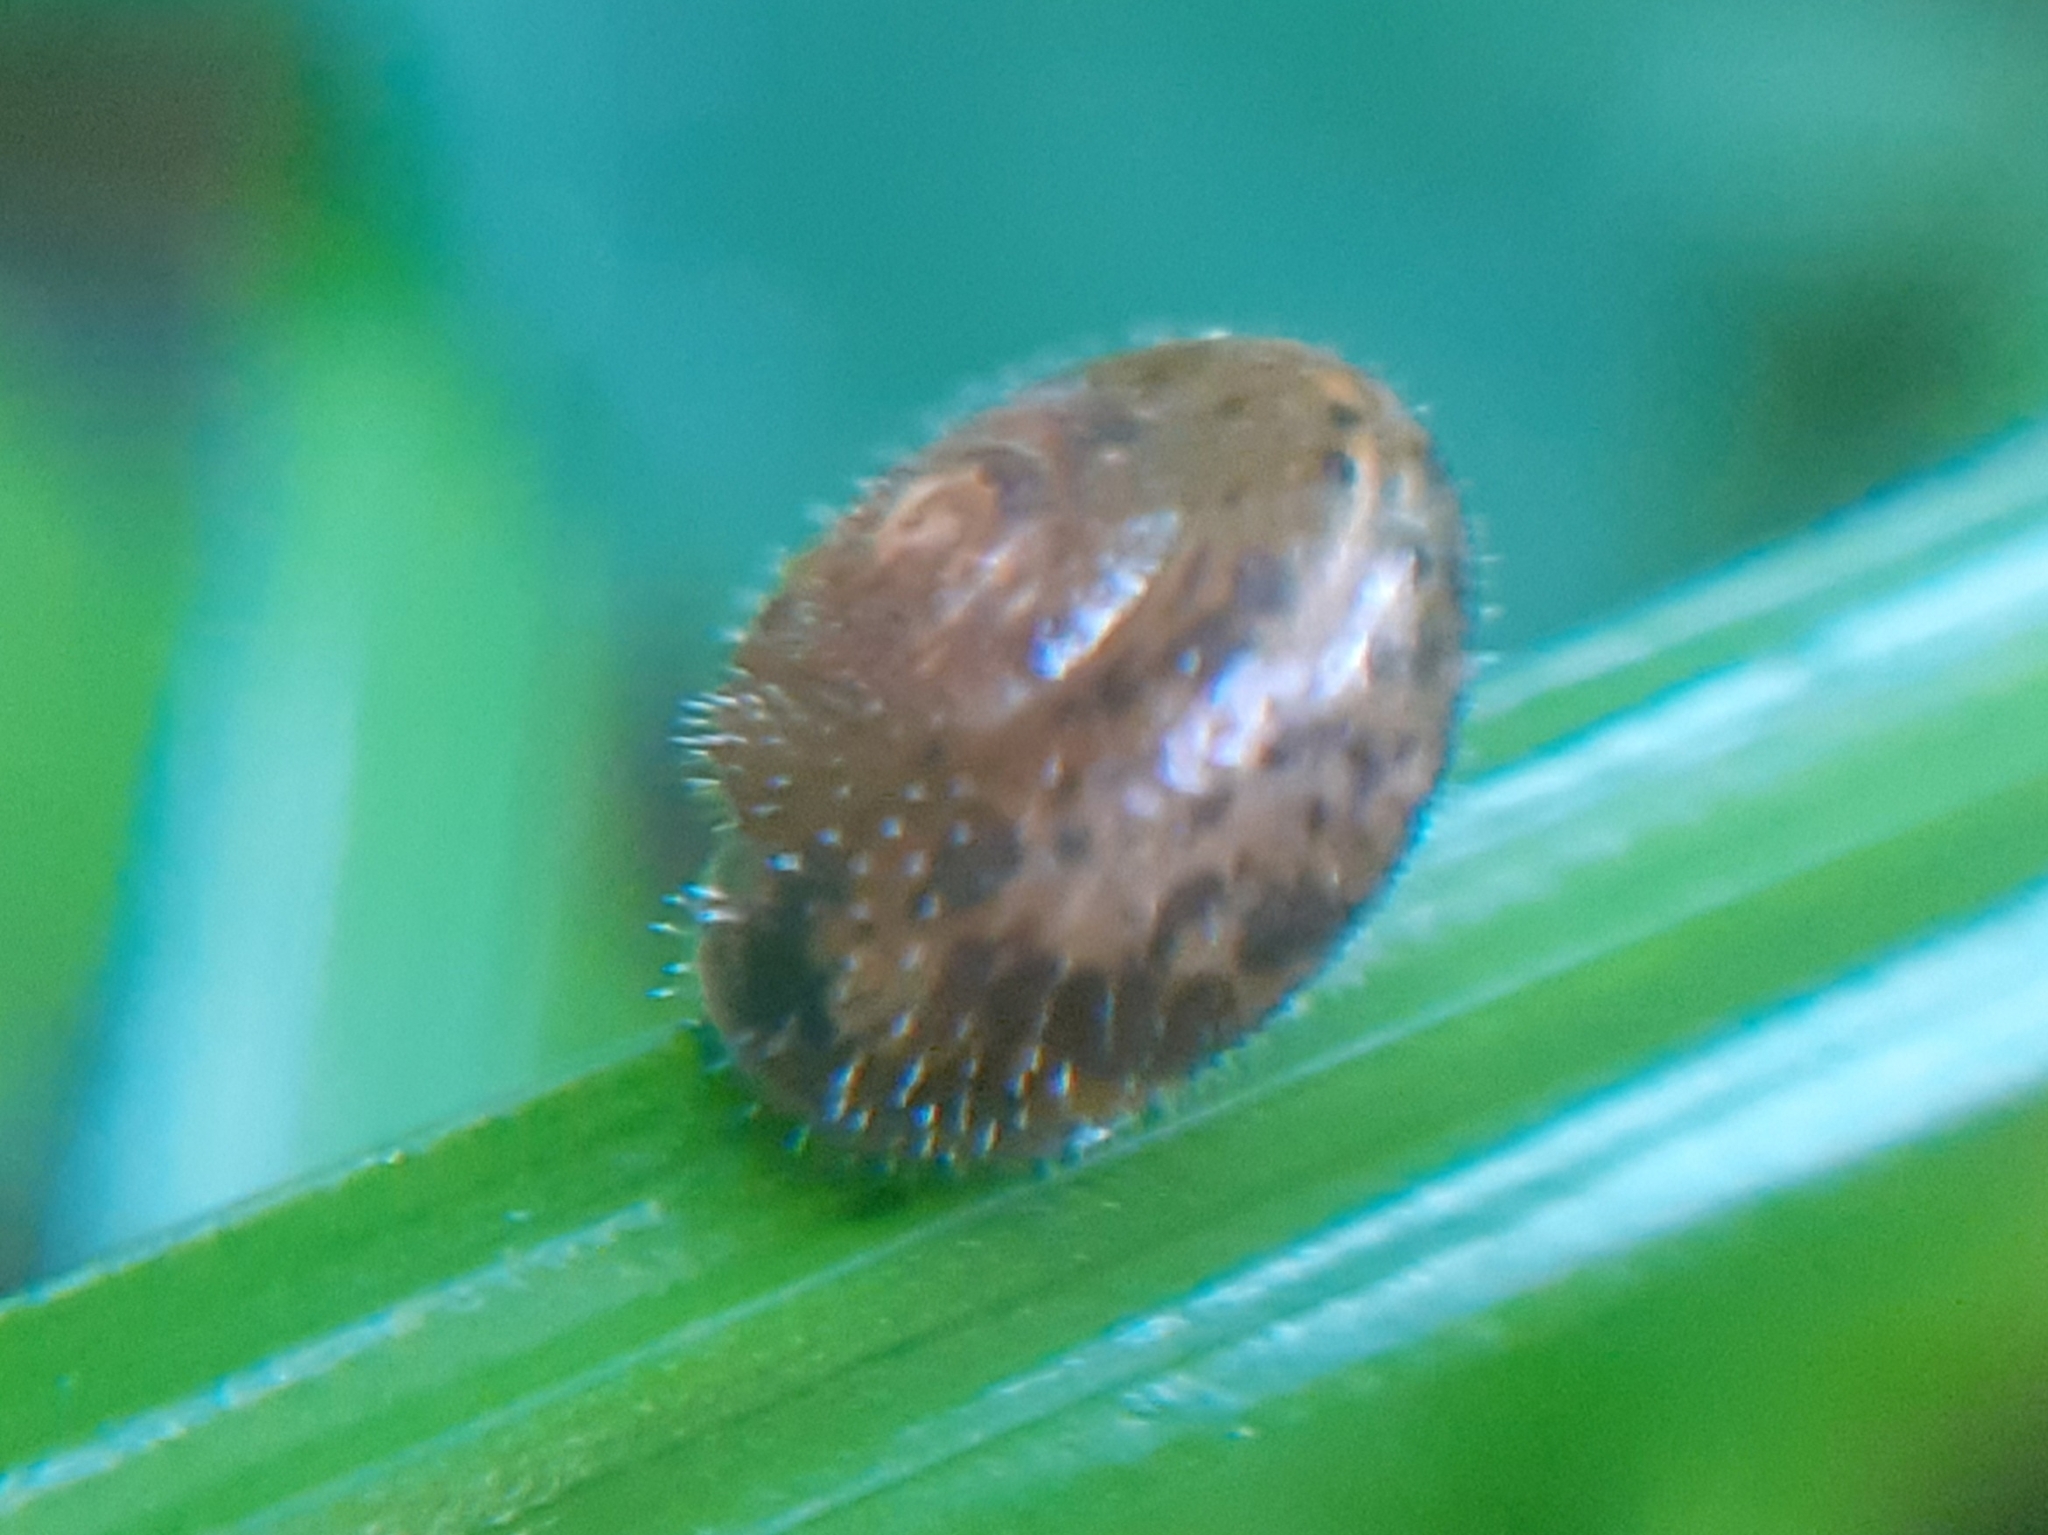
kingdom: Animalia
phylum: Mollusca
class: Gastropoda
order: Stylommatophora
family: Hygromiidae
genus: Trochulus
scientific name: Trochulus hispidus
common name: Hairy snail
